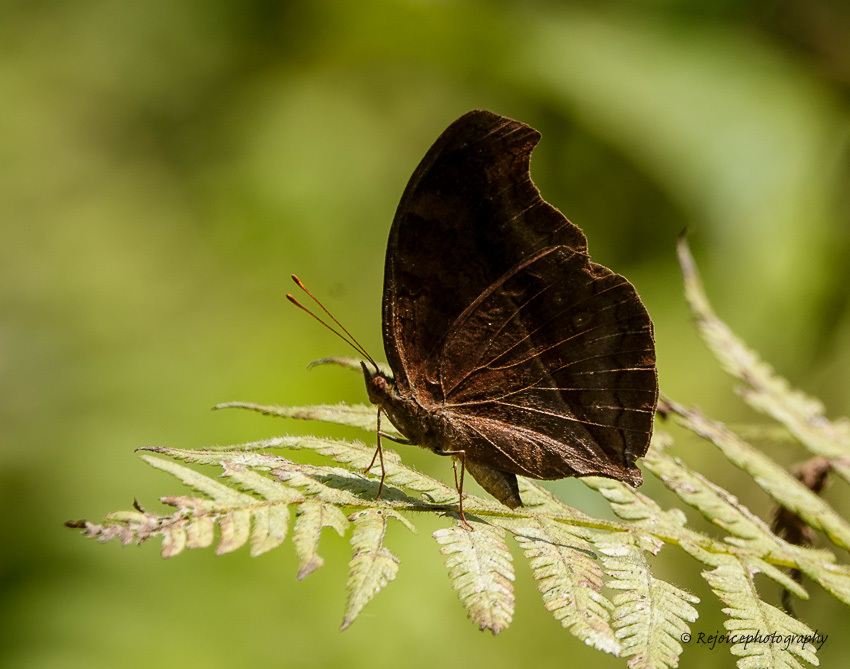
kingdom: Animalia
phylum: Arthropoda
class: Insecta
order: Lepidoptera
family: Nymphalidae
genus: Junonia
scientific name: Junonia iphita
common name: Chocolate pansy
